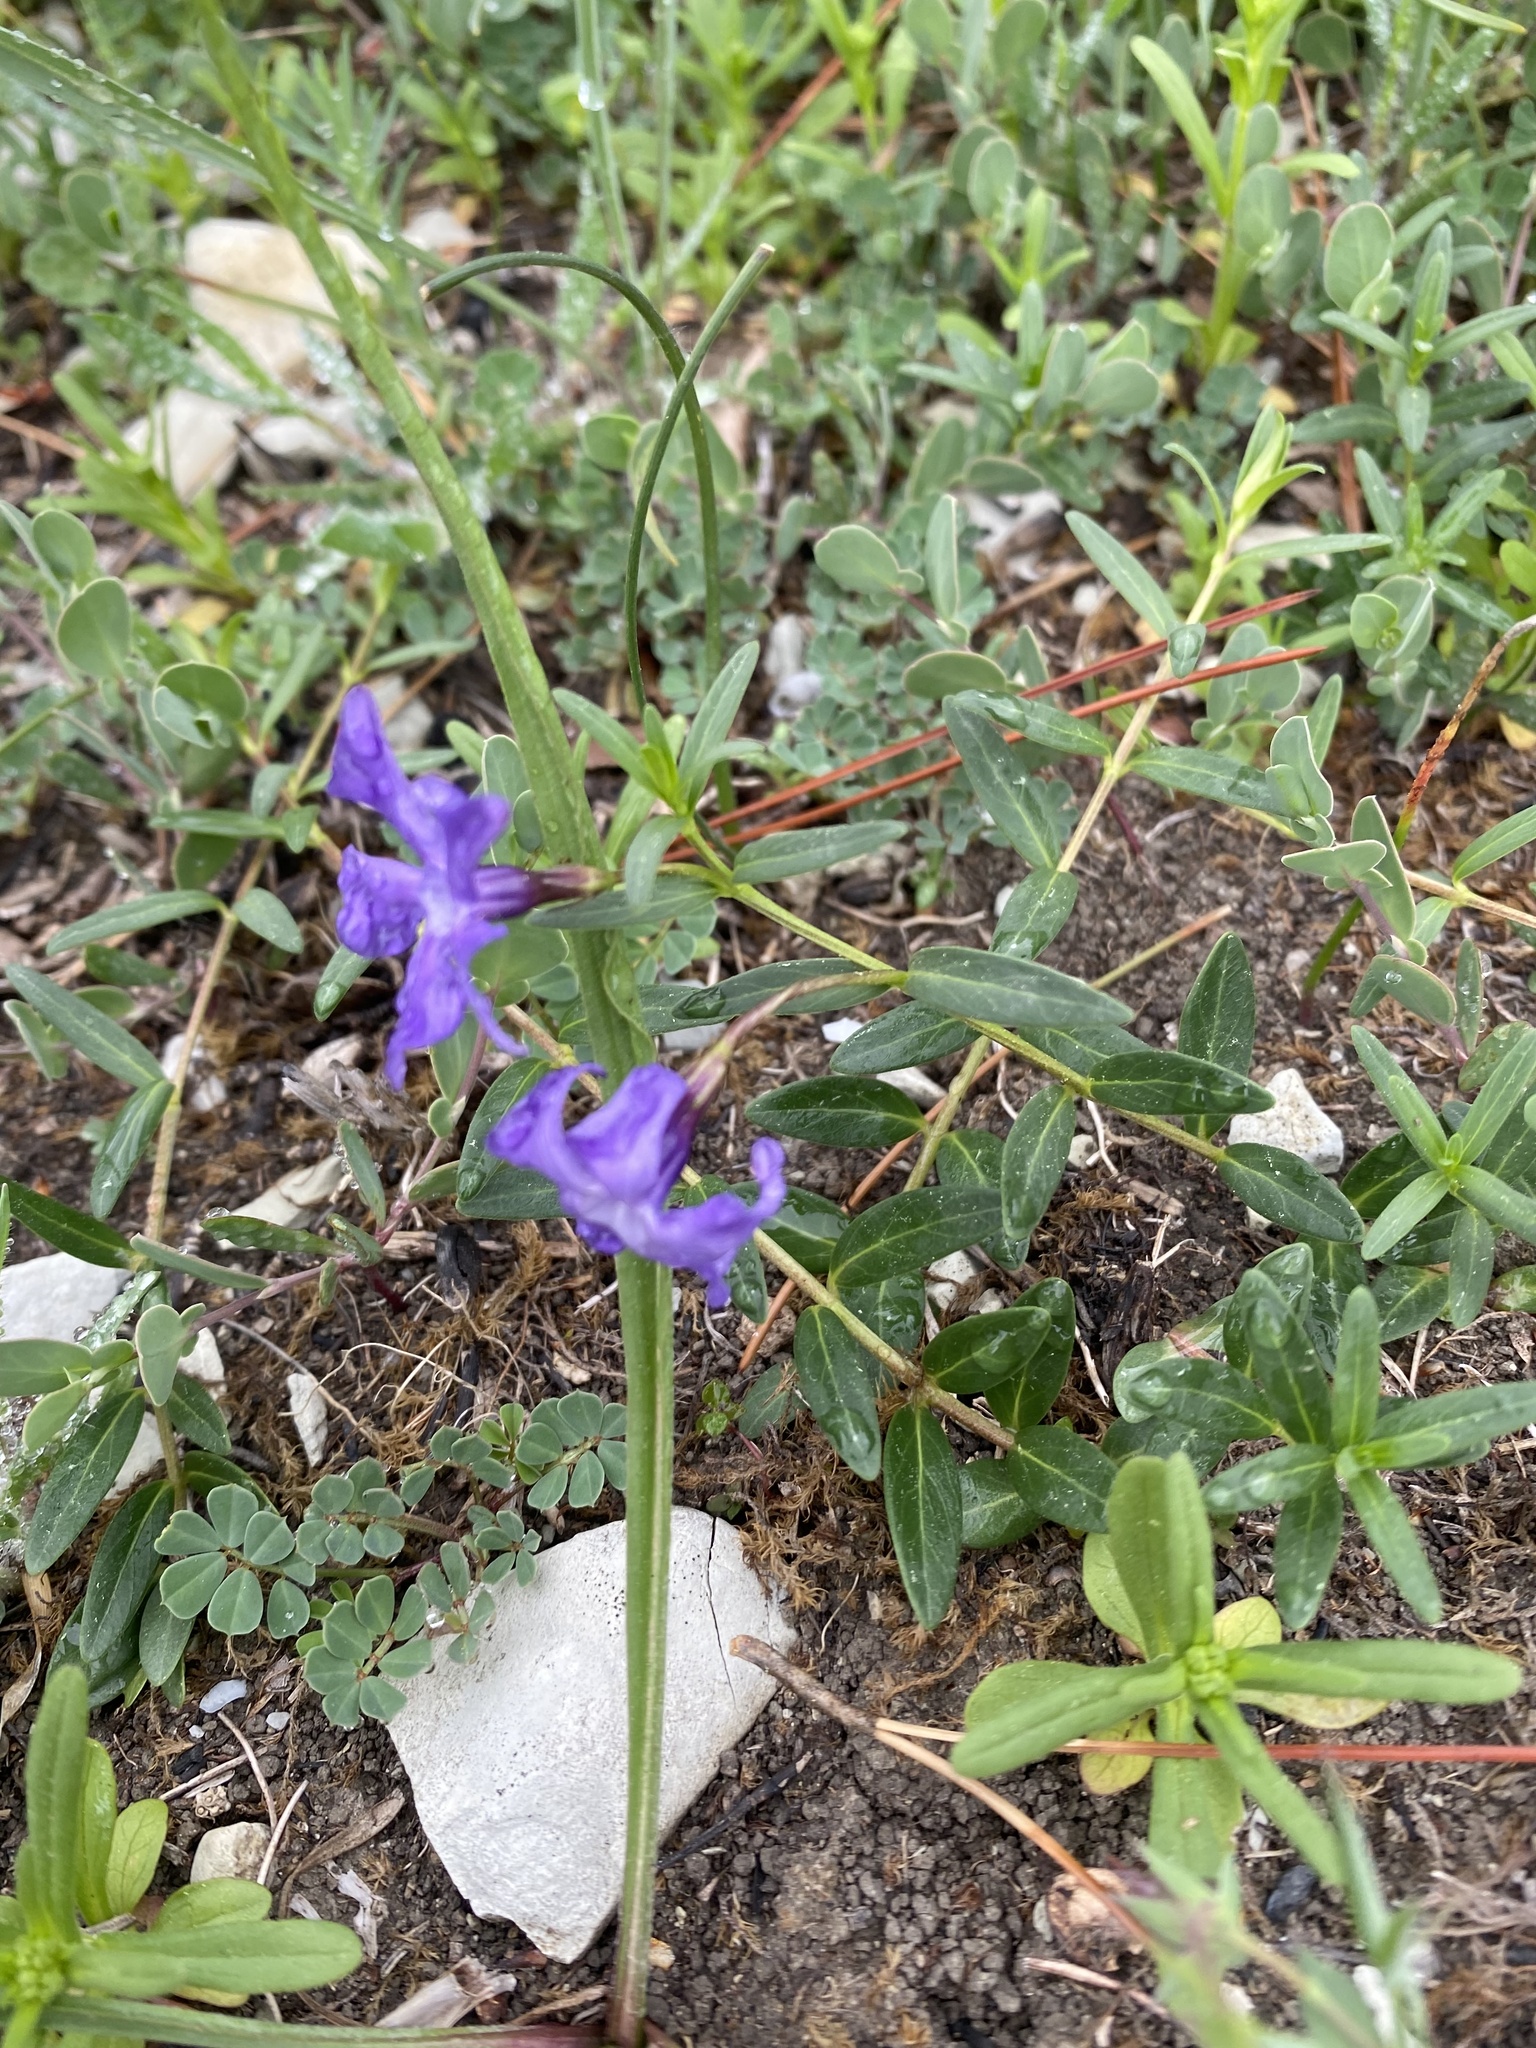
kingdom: Plantae
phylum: Tracheophyta
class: Magnoliopsida
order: Gentianales
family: Apocynaceae
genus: Vinca
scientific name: Vinca herbacea
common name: Herbaceous periwinkle
